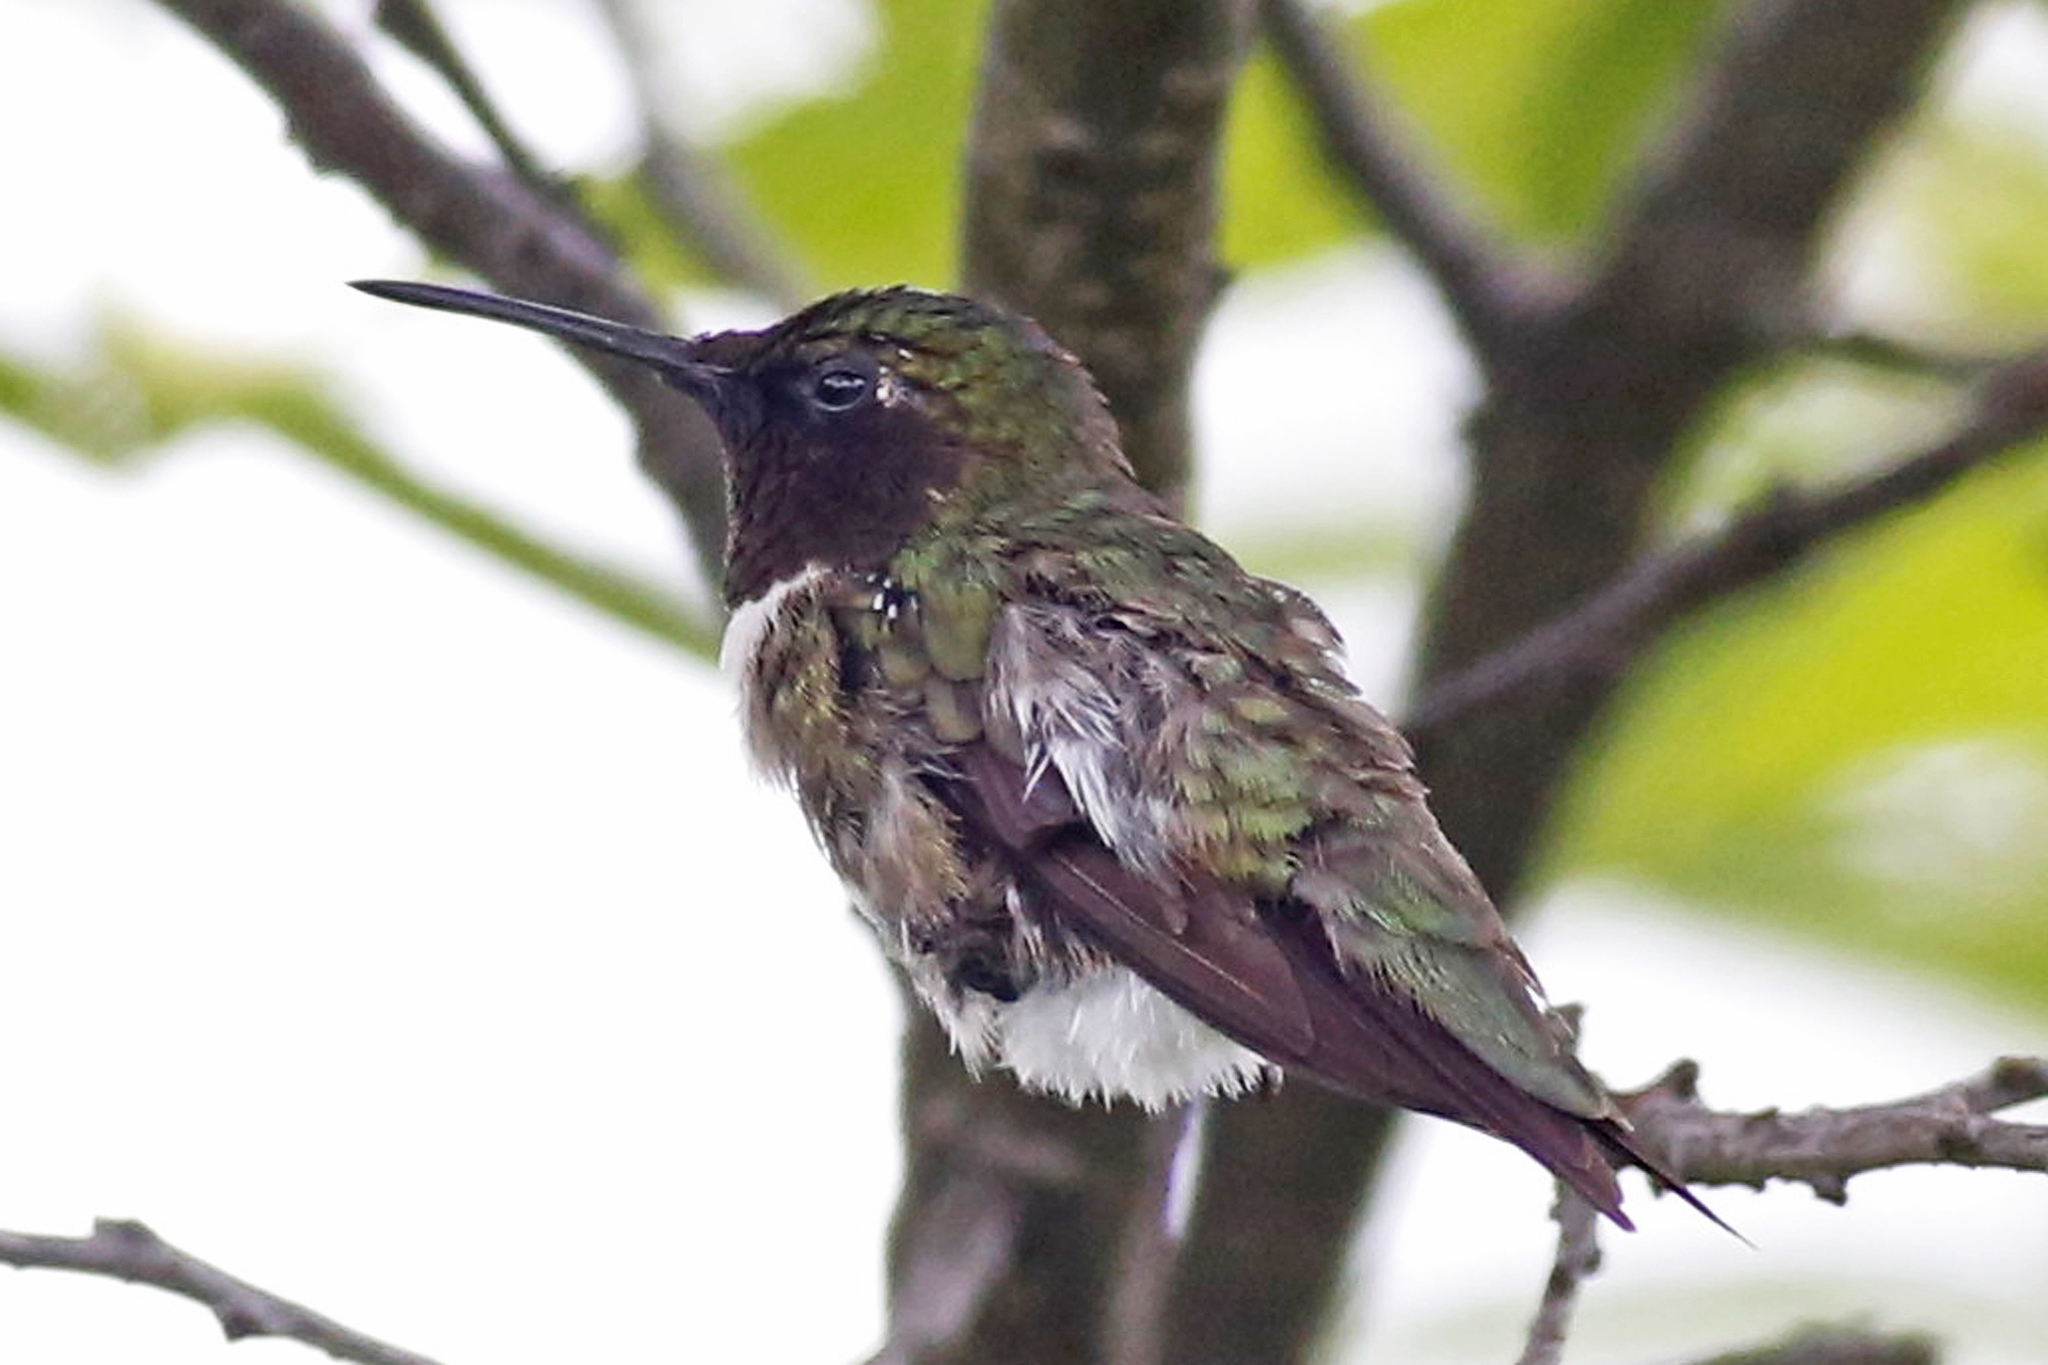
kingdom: Animalia
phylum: Chordata
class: Aves
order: Apodiformes
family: Trochilidae
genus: Archilochus
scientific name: Archilochus colubris
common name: Ruby-throated hummingbird
